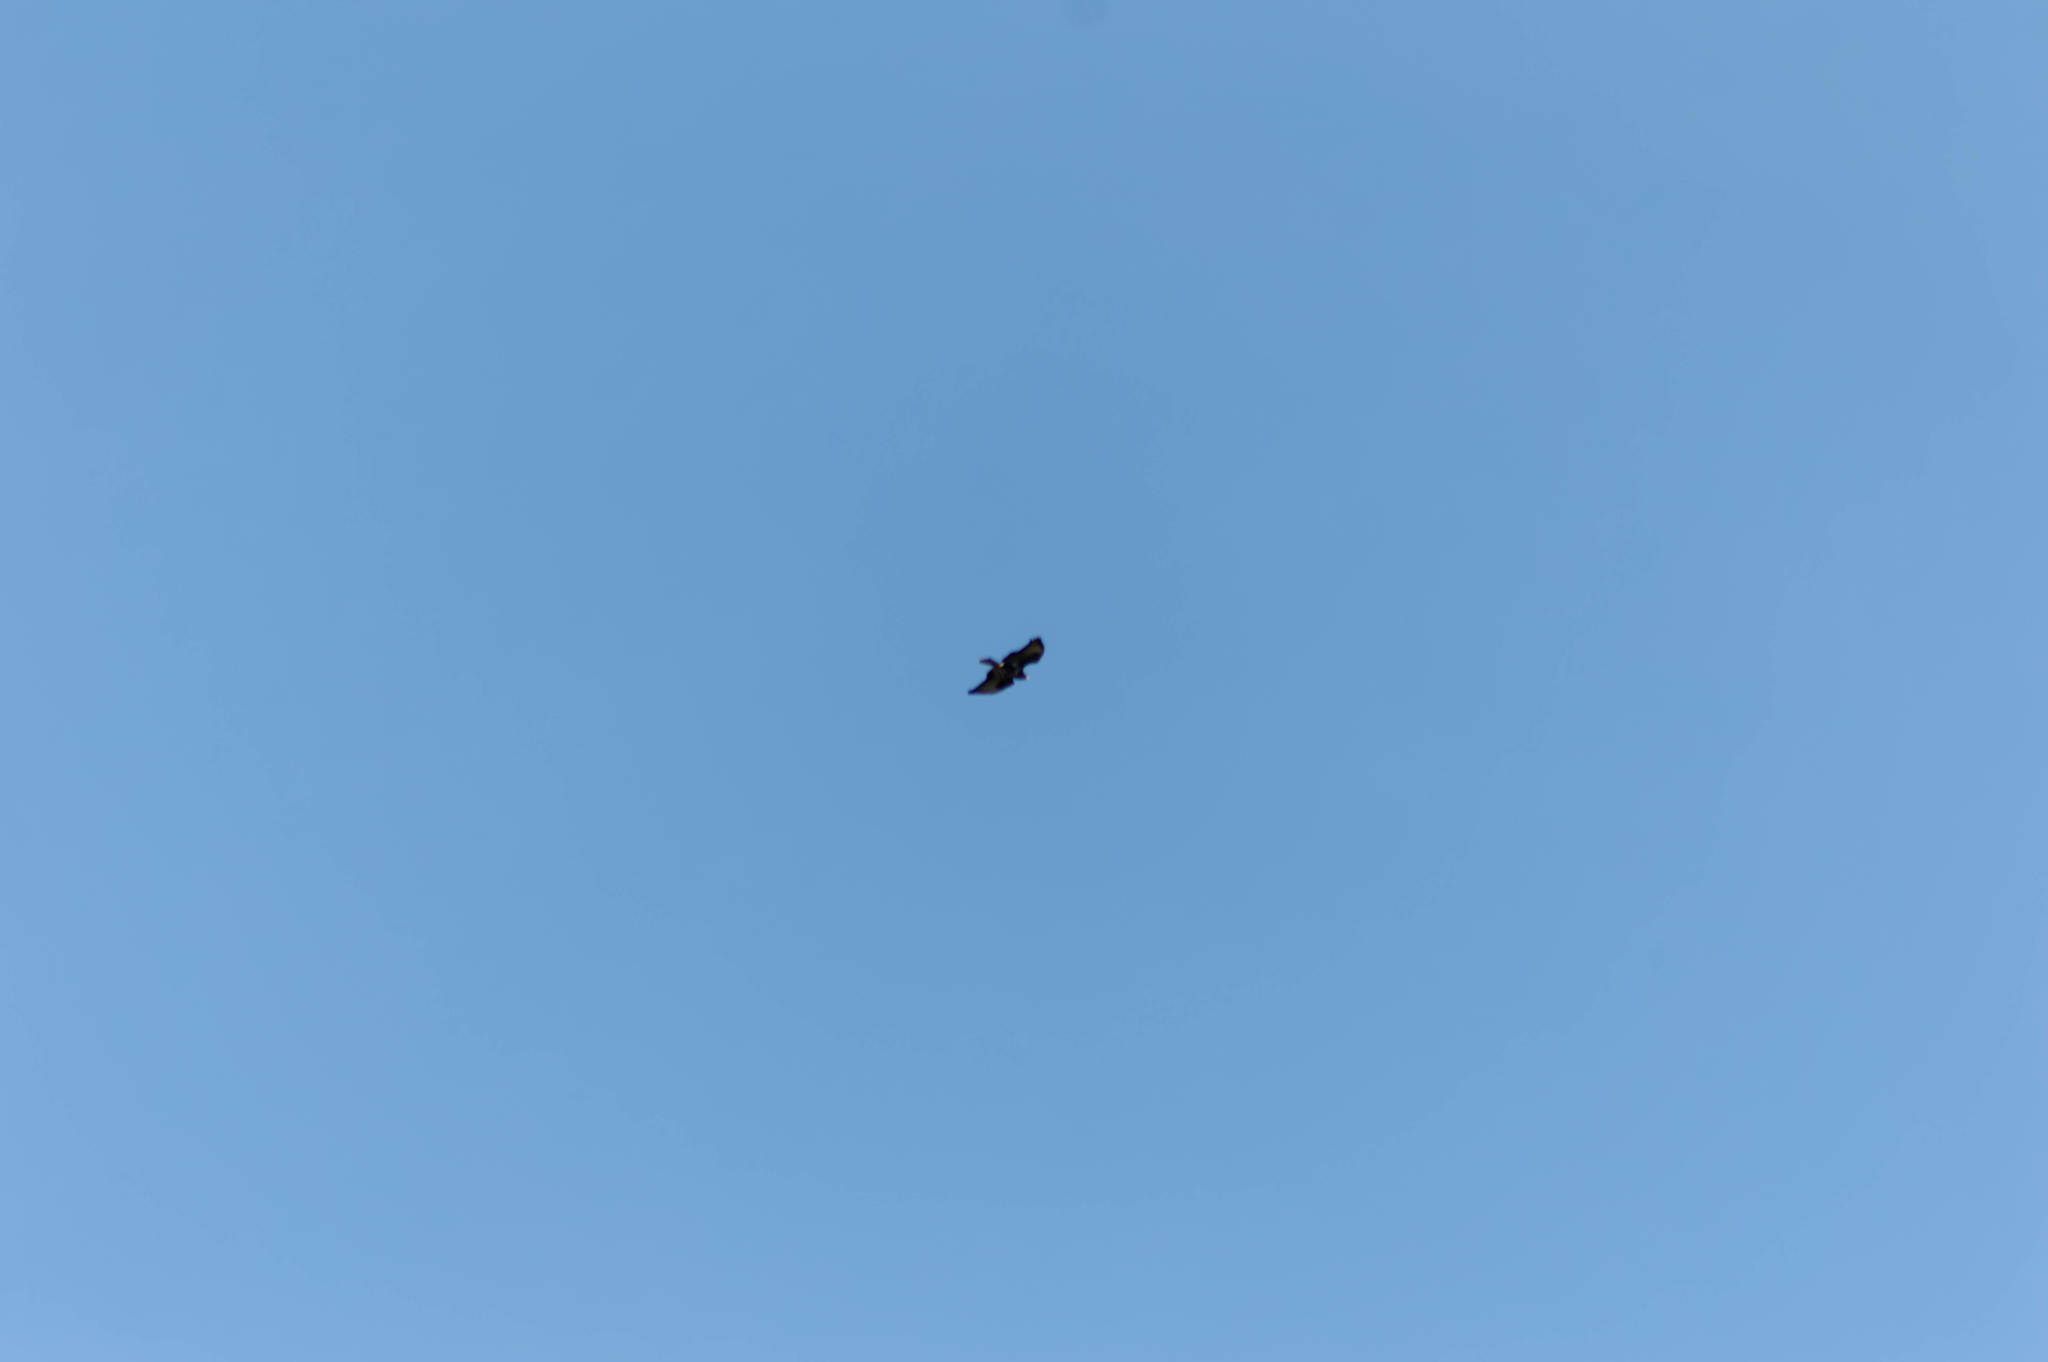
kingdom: Animalia
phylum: Chordata
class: Aves
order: Accipitriformes
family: Accipitridae
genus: Buteo
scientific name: Buteo buteo
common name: Common buzzard
